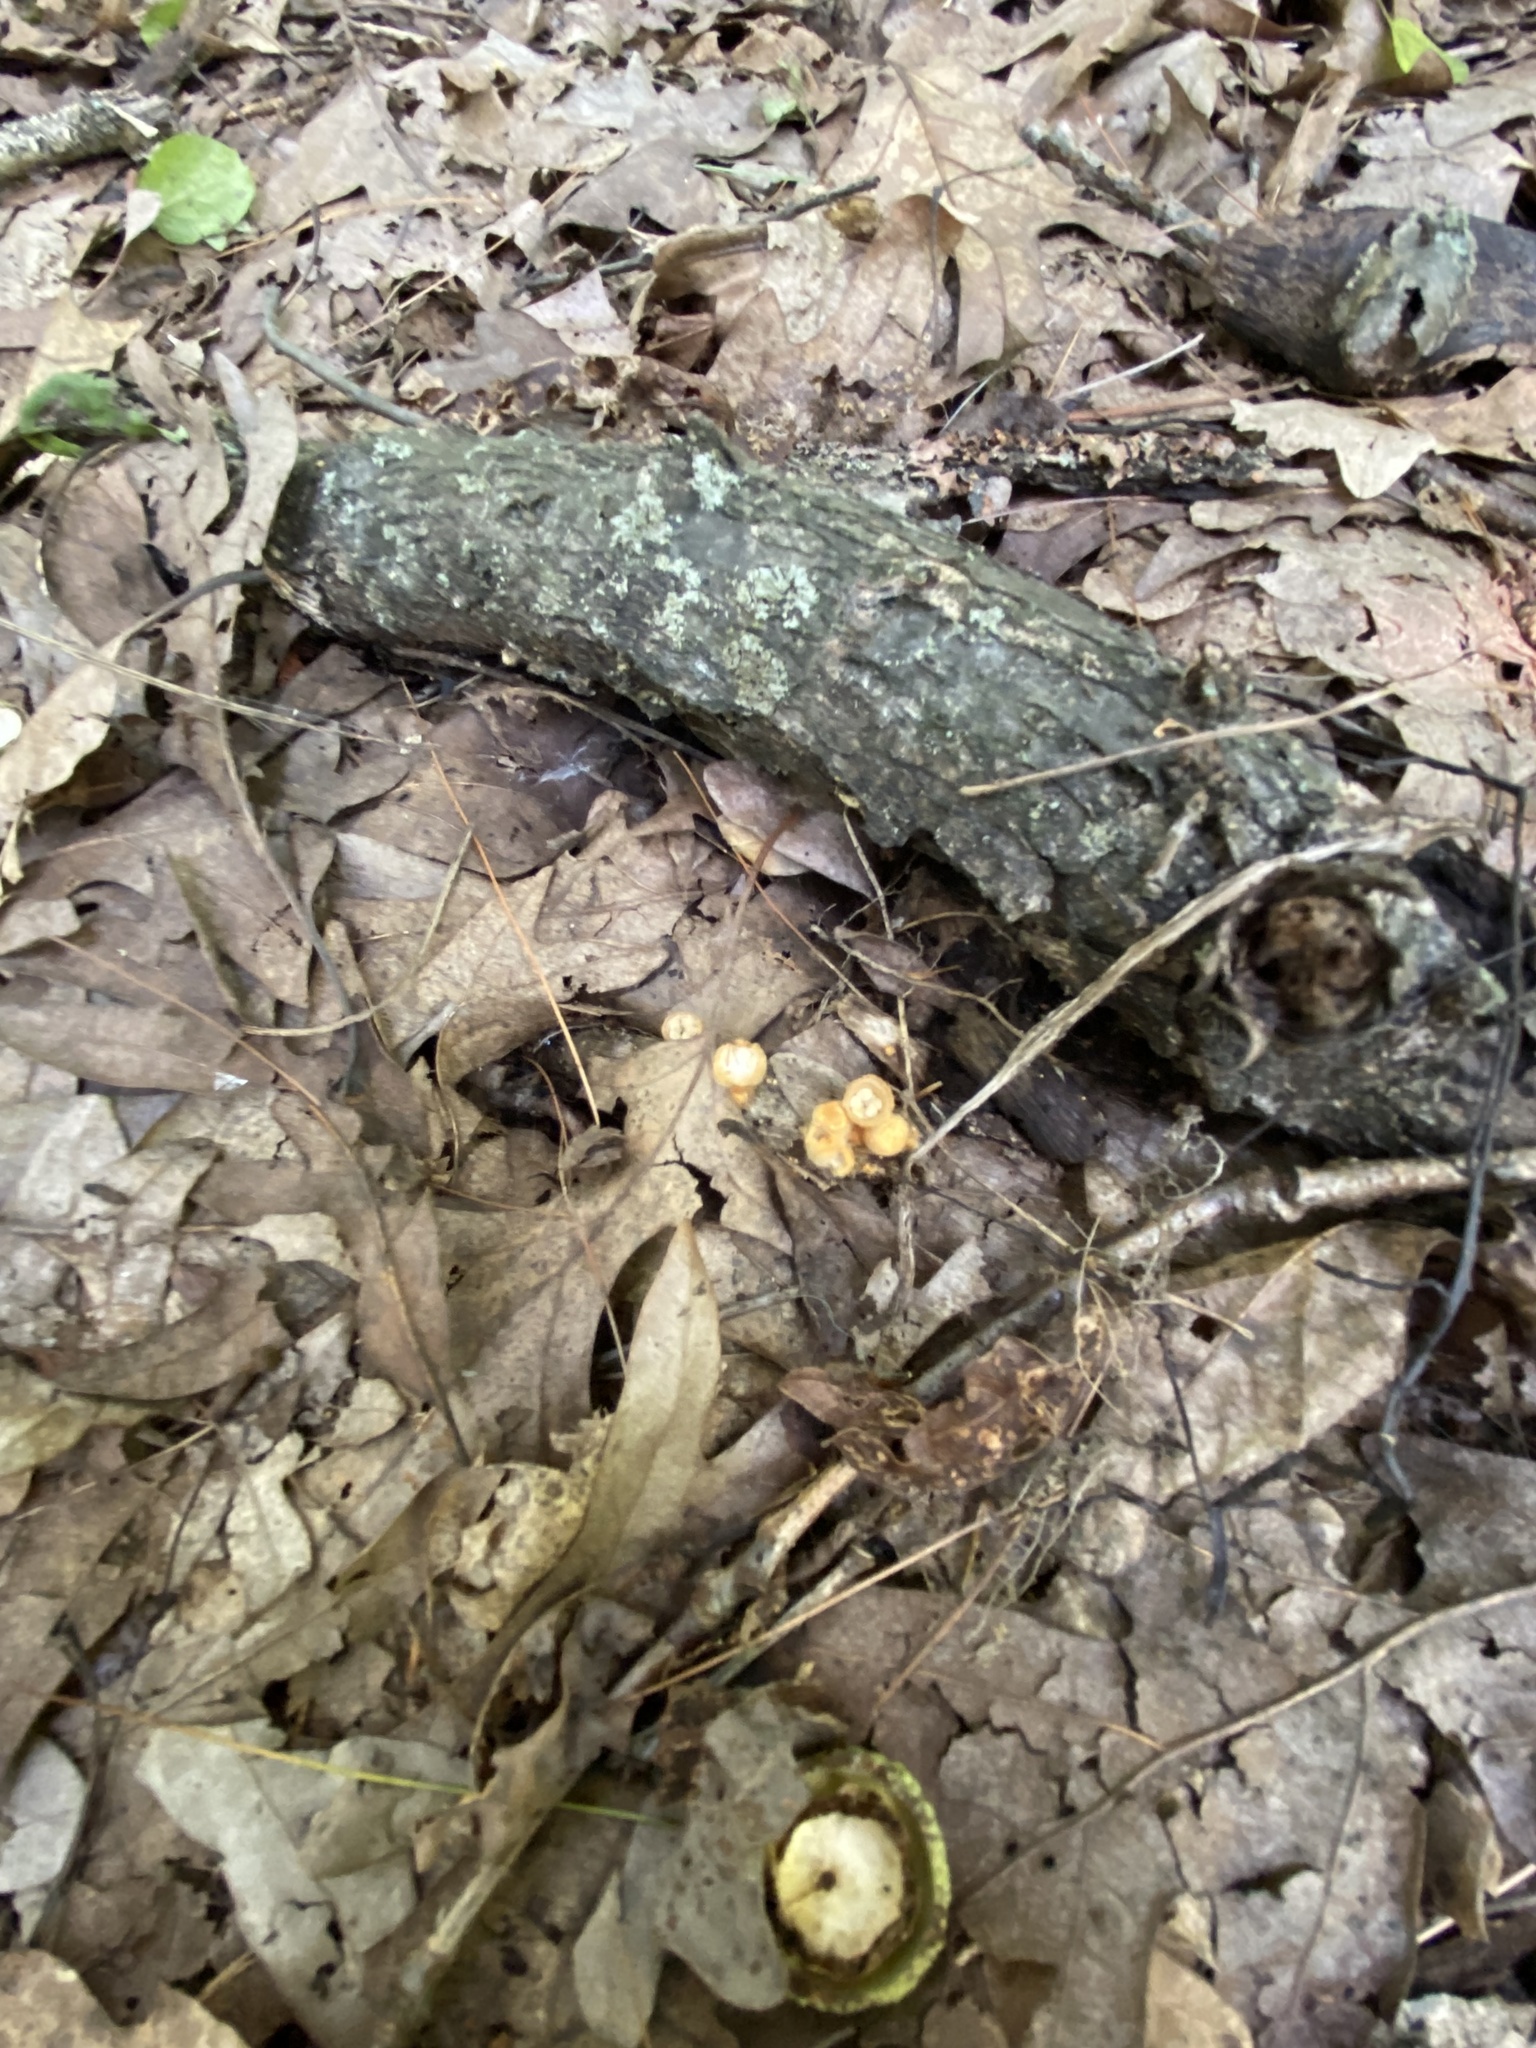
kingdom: Fungi
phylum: Basidiomycota
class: Agaricomycetes
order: Agaricales
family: Nidulariaceae
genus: Crucibulum
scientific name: Crucibulum laeve
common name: Common bird's nest
